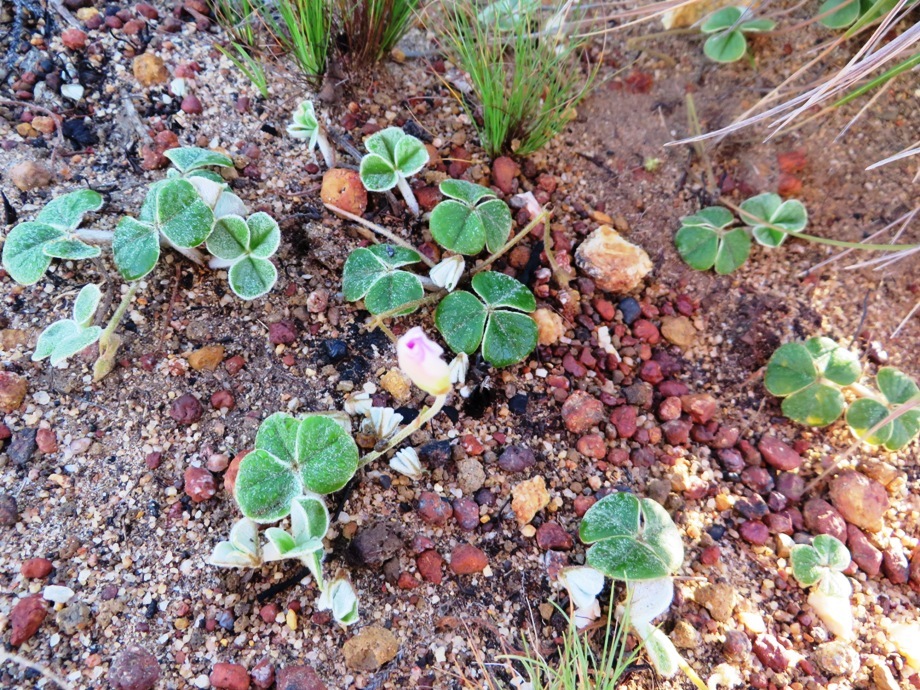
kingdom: Plantae
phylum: Tracheophyta
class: Magnoliopsida
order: Oxalidales
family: Oxalidaceae
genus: Oxalis
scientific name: Oxalis truncatula
